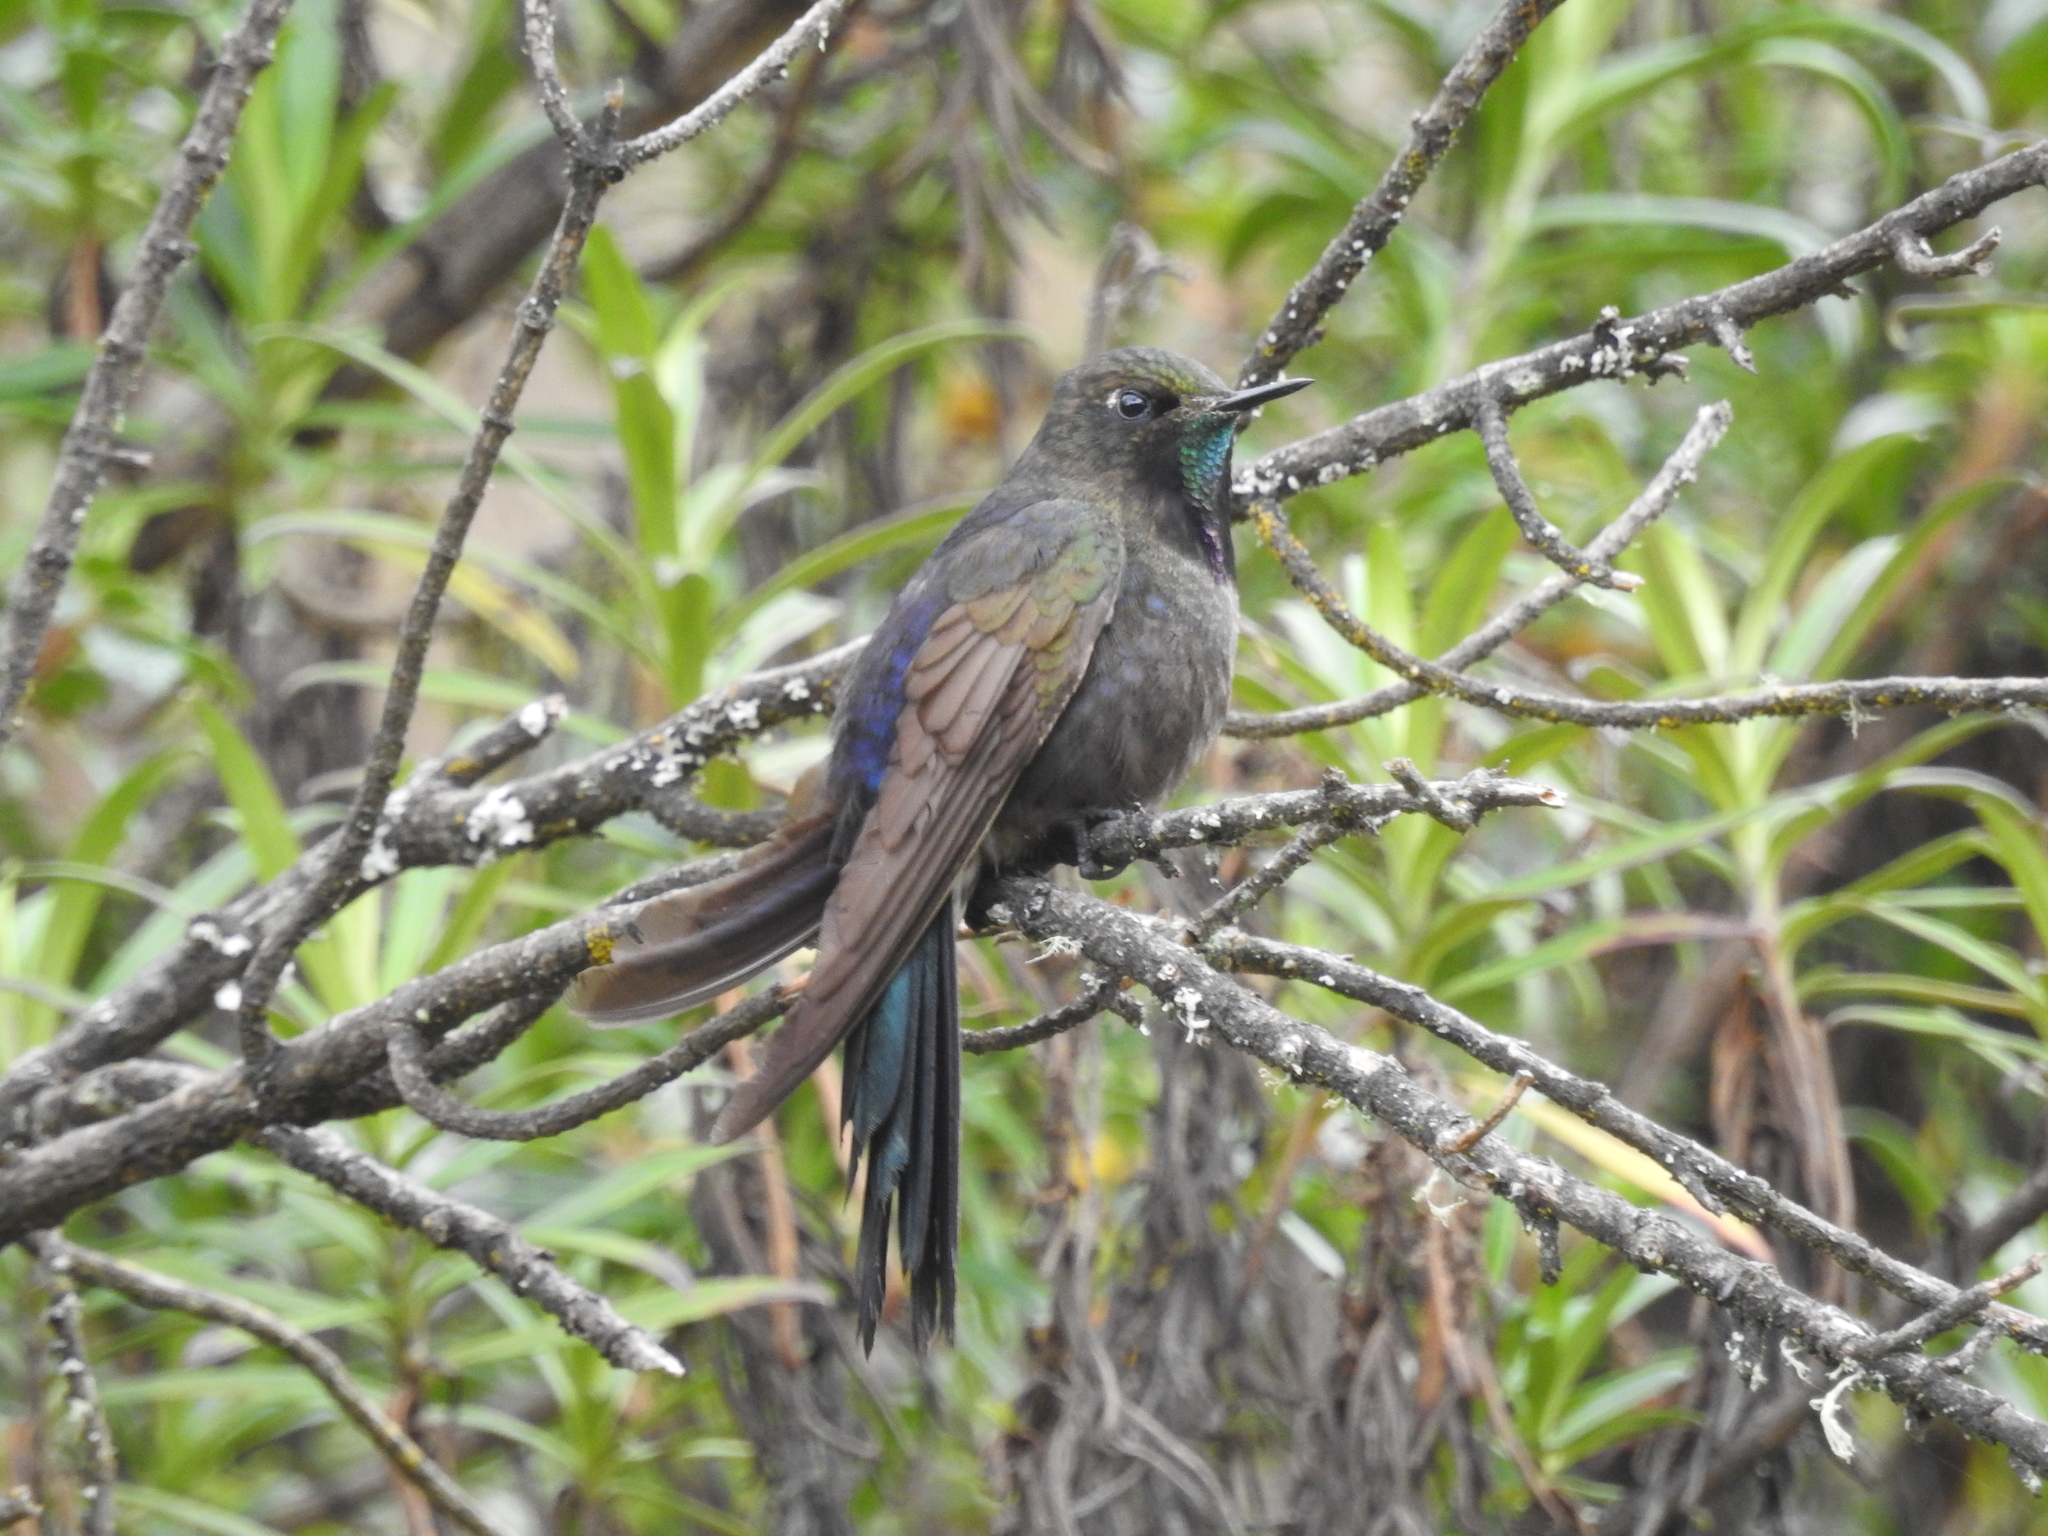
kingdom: Animalia
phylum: Chordata
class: Aves
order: Apodiformes
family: Trochilidae
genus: Chalcostigma
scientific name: Chalcostigma stanleyi
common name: Blue-mantled thornbill
